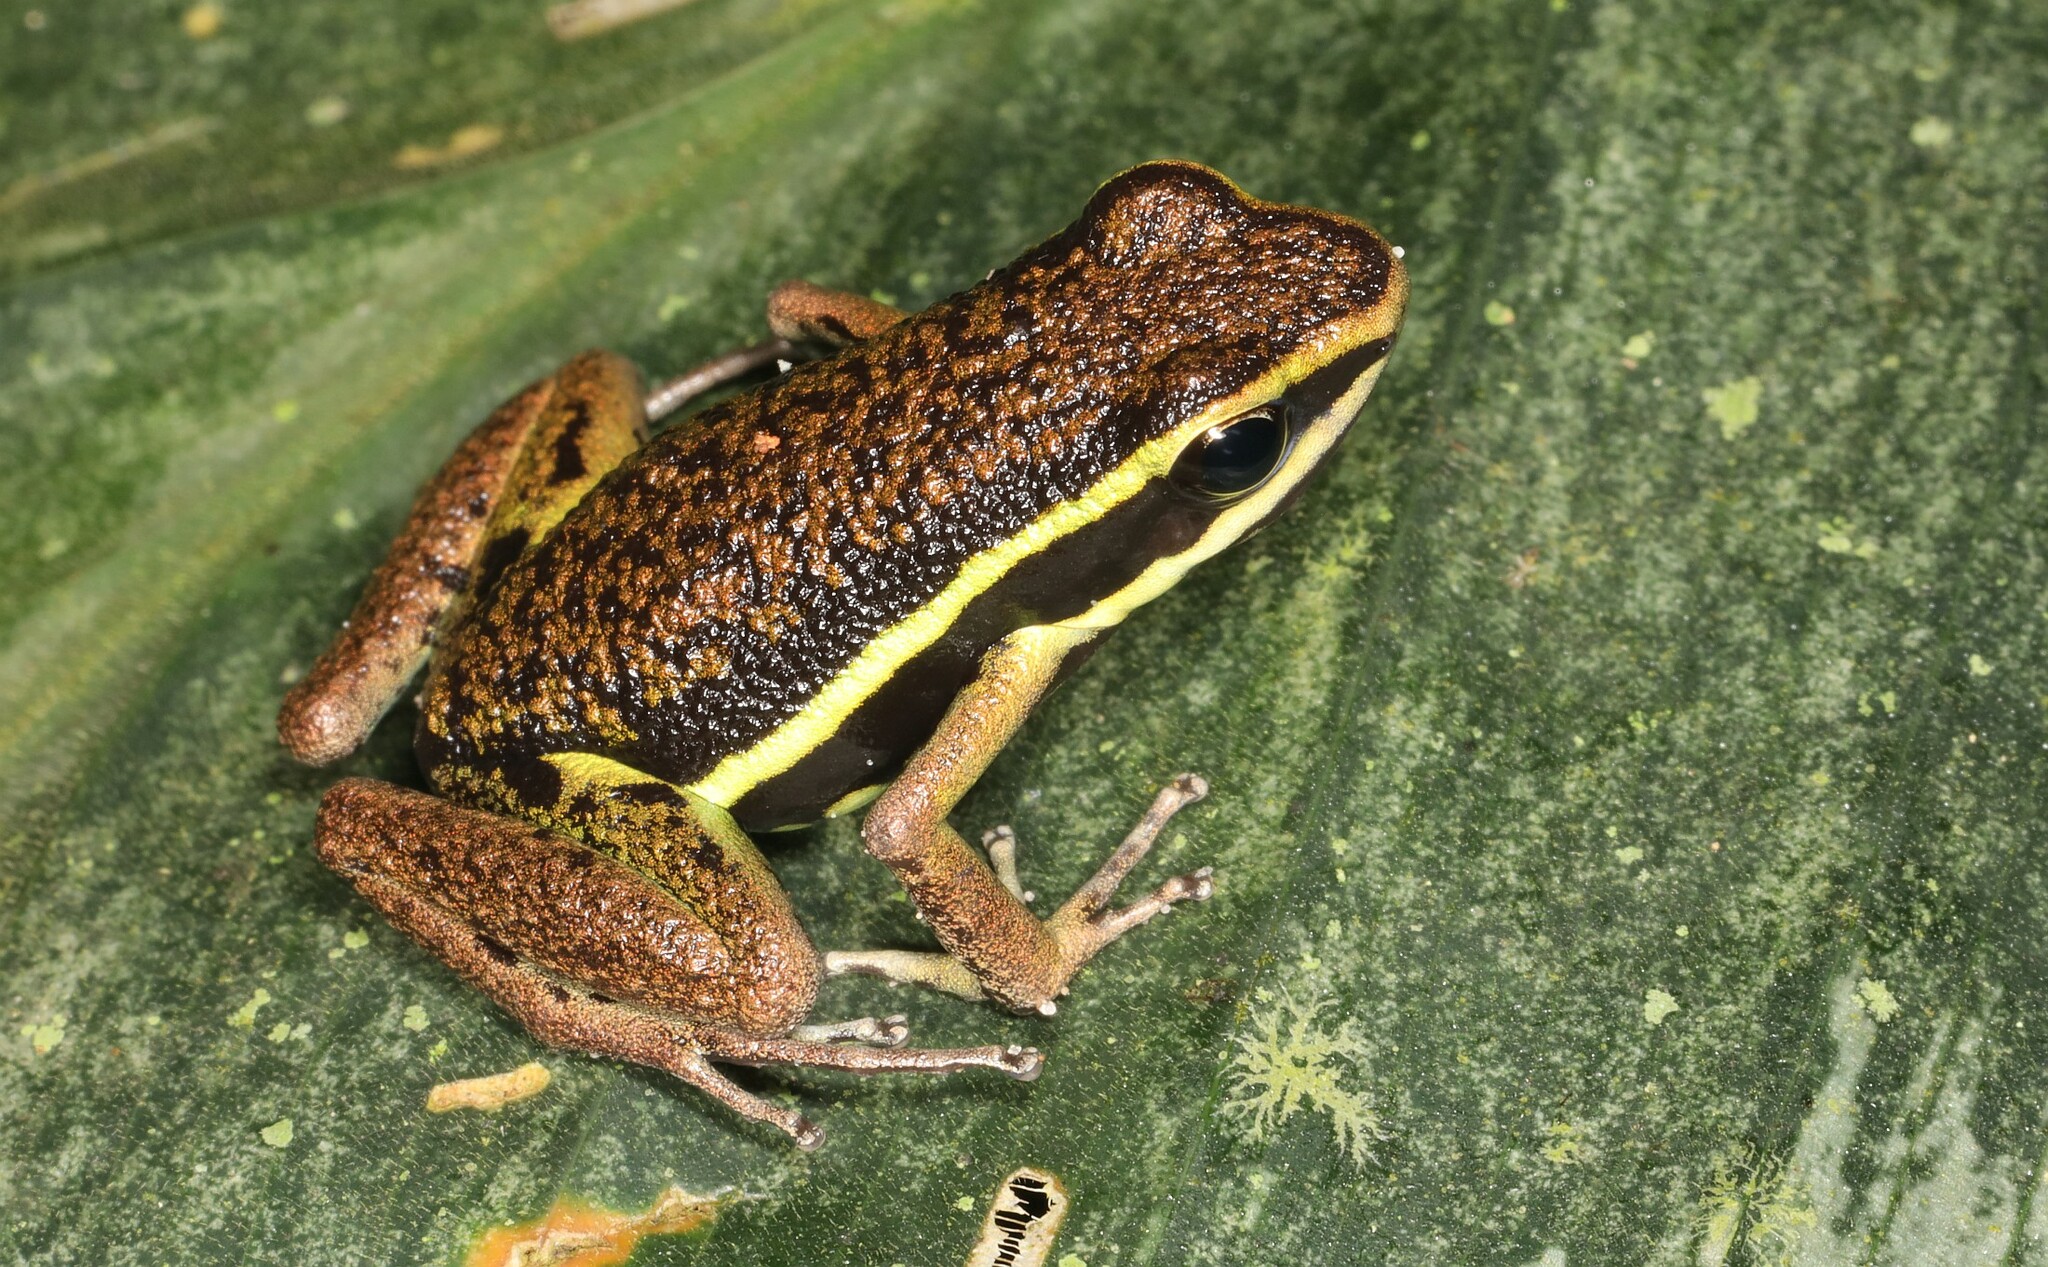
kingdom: Animalia
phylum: Chordata
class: Amphibia
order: Anura
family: Dendrobatidae
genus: Ameerega
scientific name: Ameerega petersi
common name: Peru poison frog
